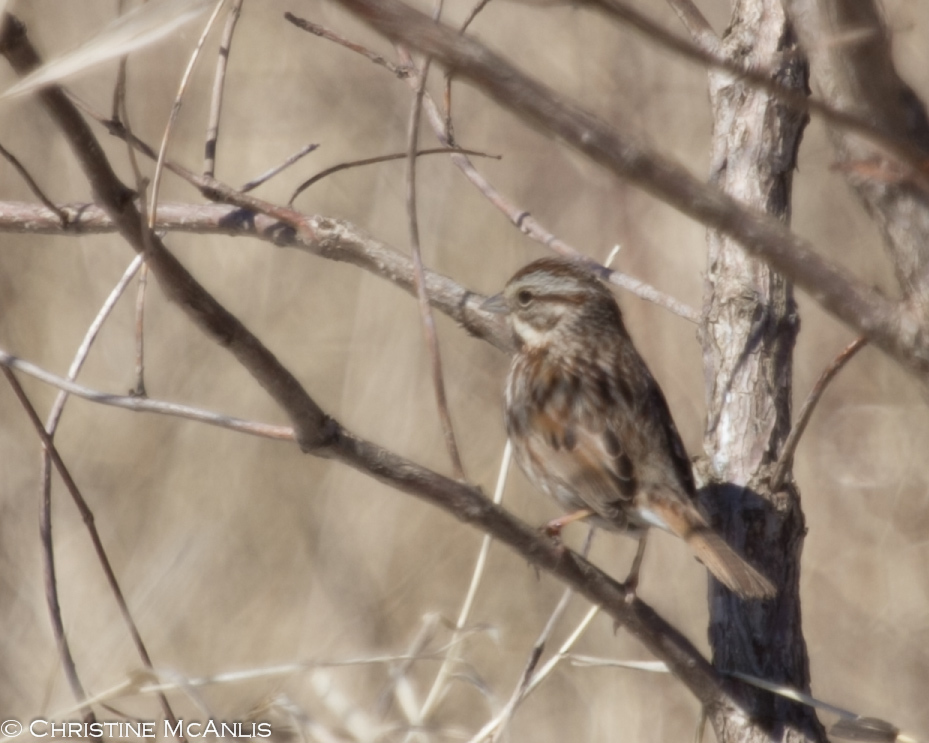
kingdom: Animalia
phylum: Chordata
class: Aves
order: Passeriformes
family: Passerellidae
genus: Melospiza
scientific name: Melospiza melodia
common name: Song sparrow
